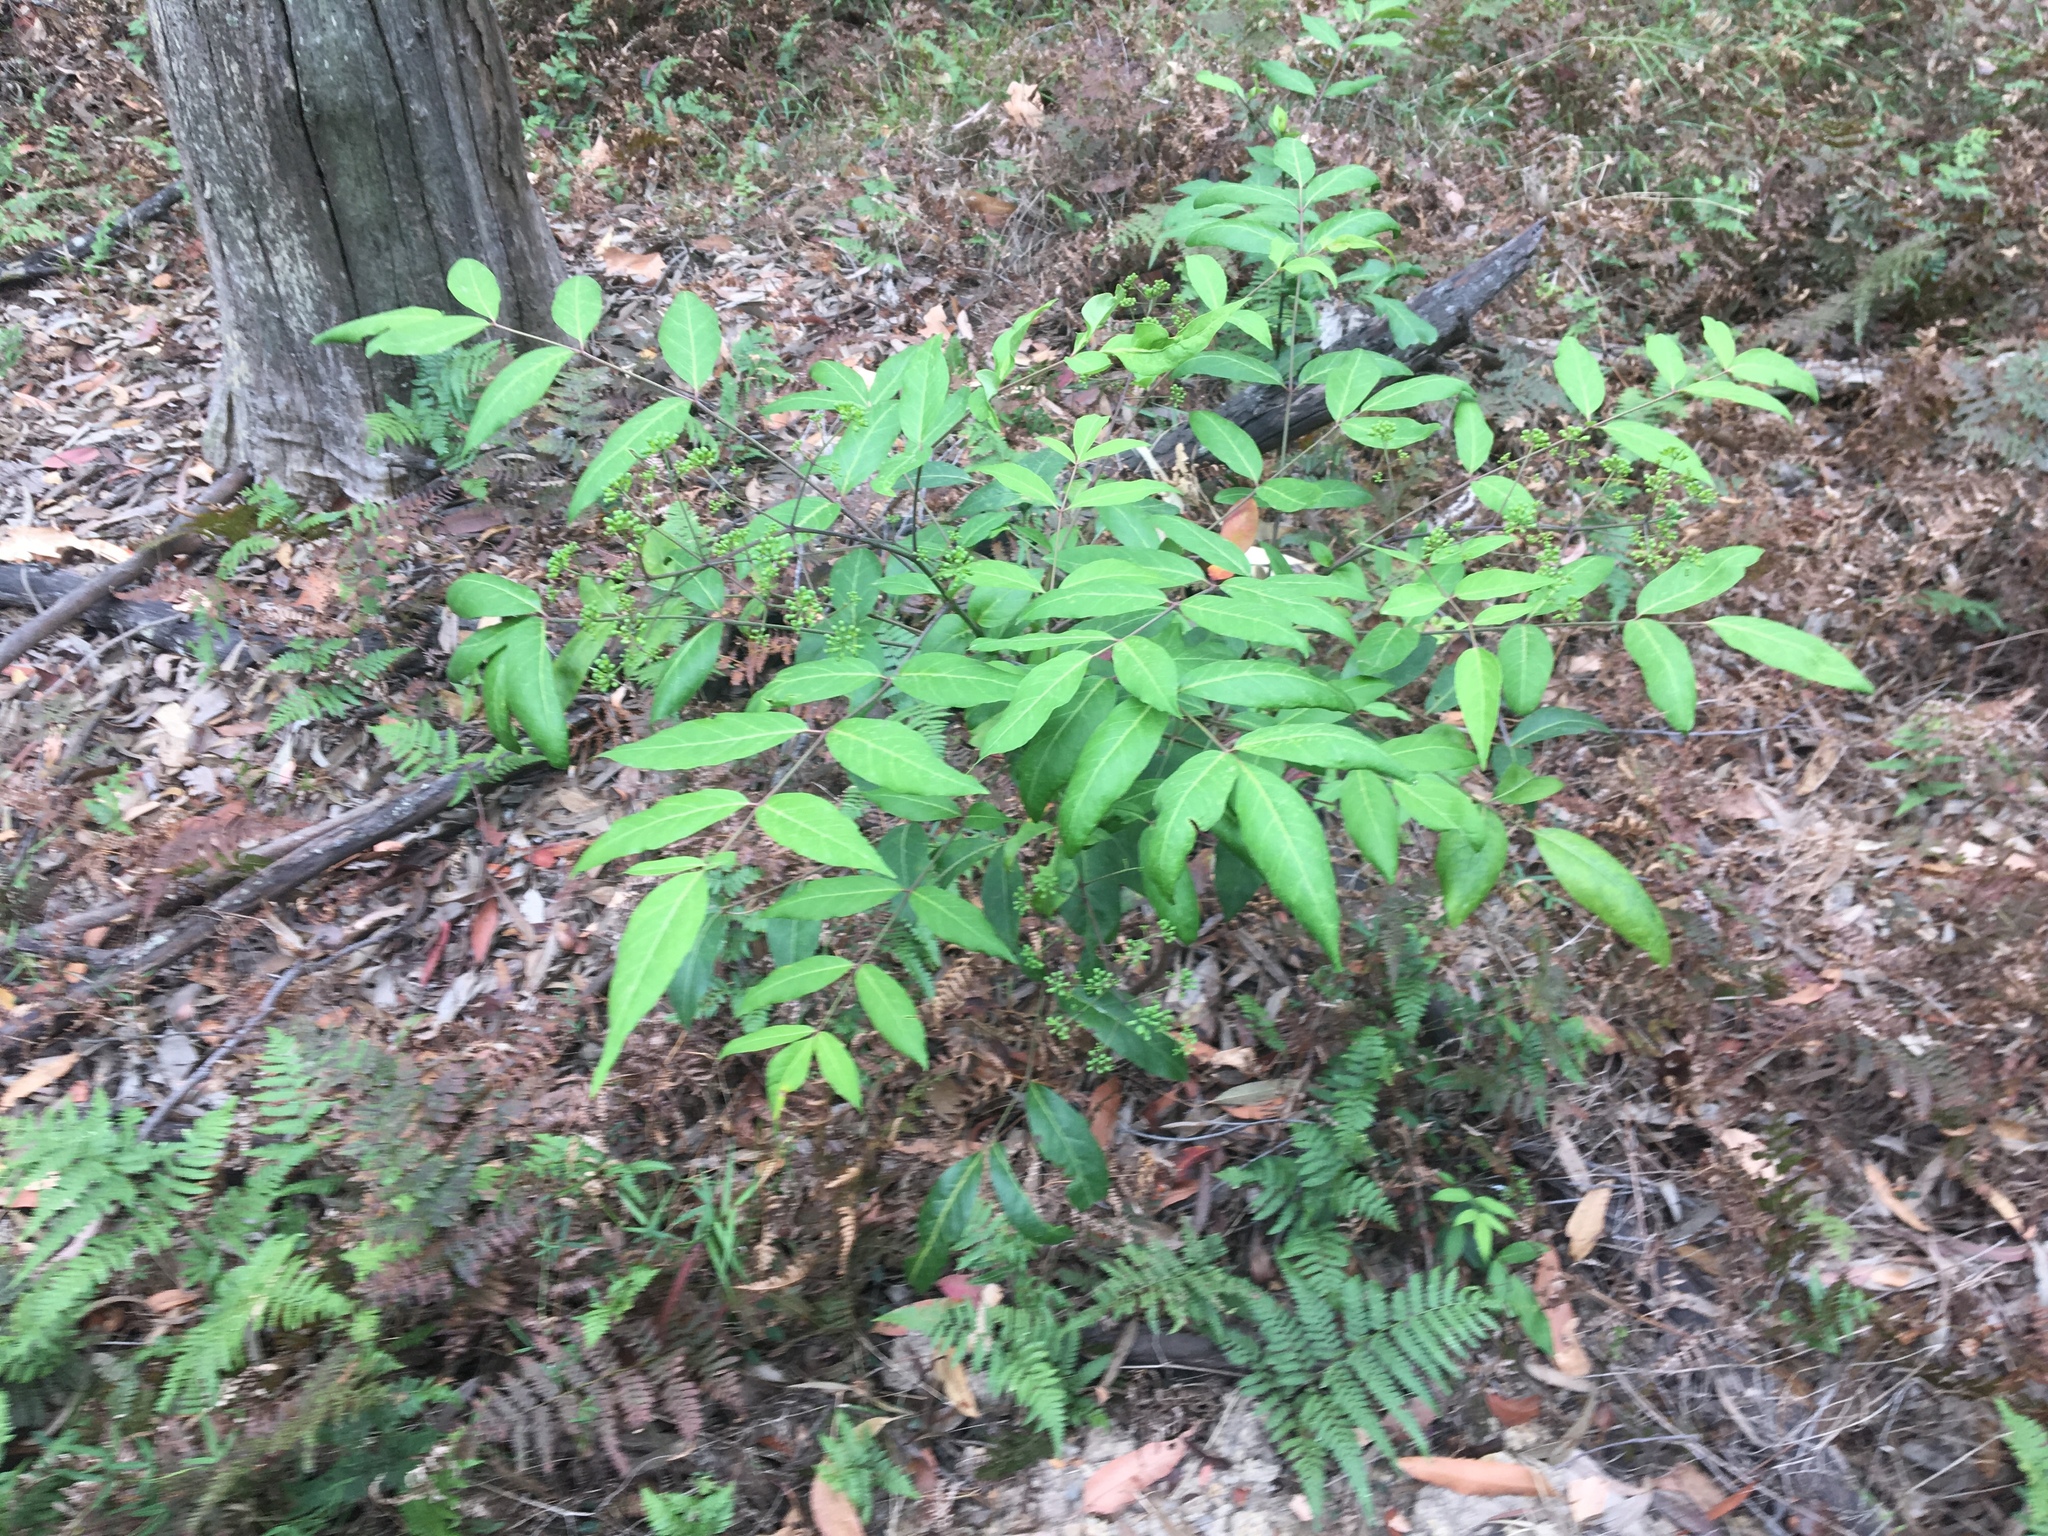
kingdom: Plantae
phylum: Tracheophyta
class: Magnoliopsida
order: Apiales
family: Araliaceae
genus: Polyscias
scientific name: Polyscias sambucifolia
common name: Elderberry-ash
